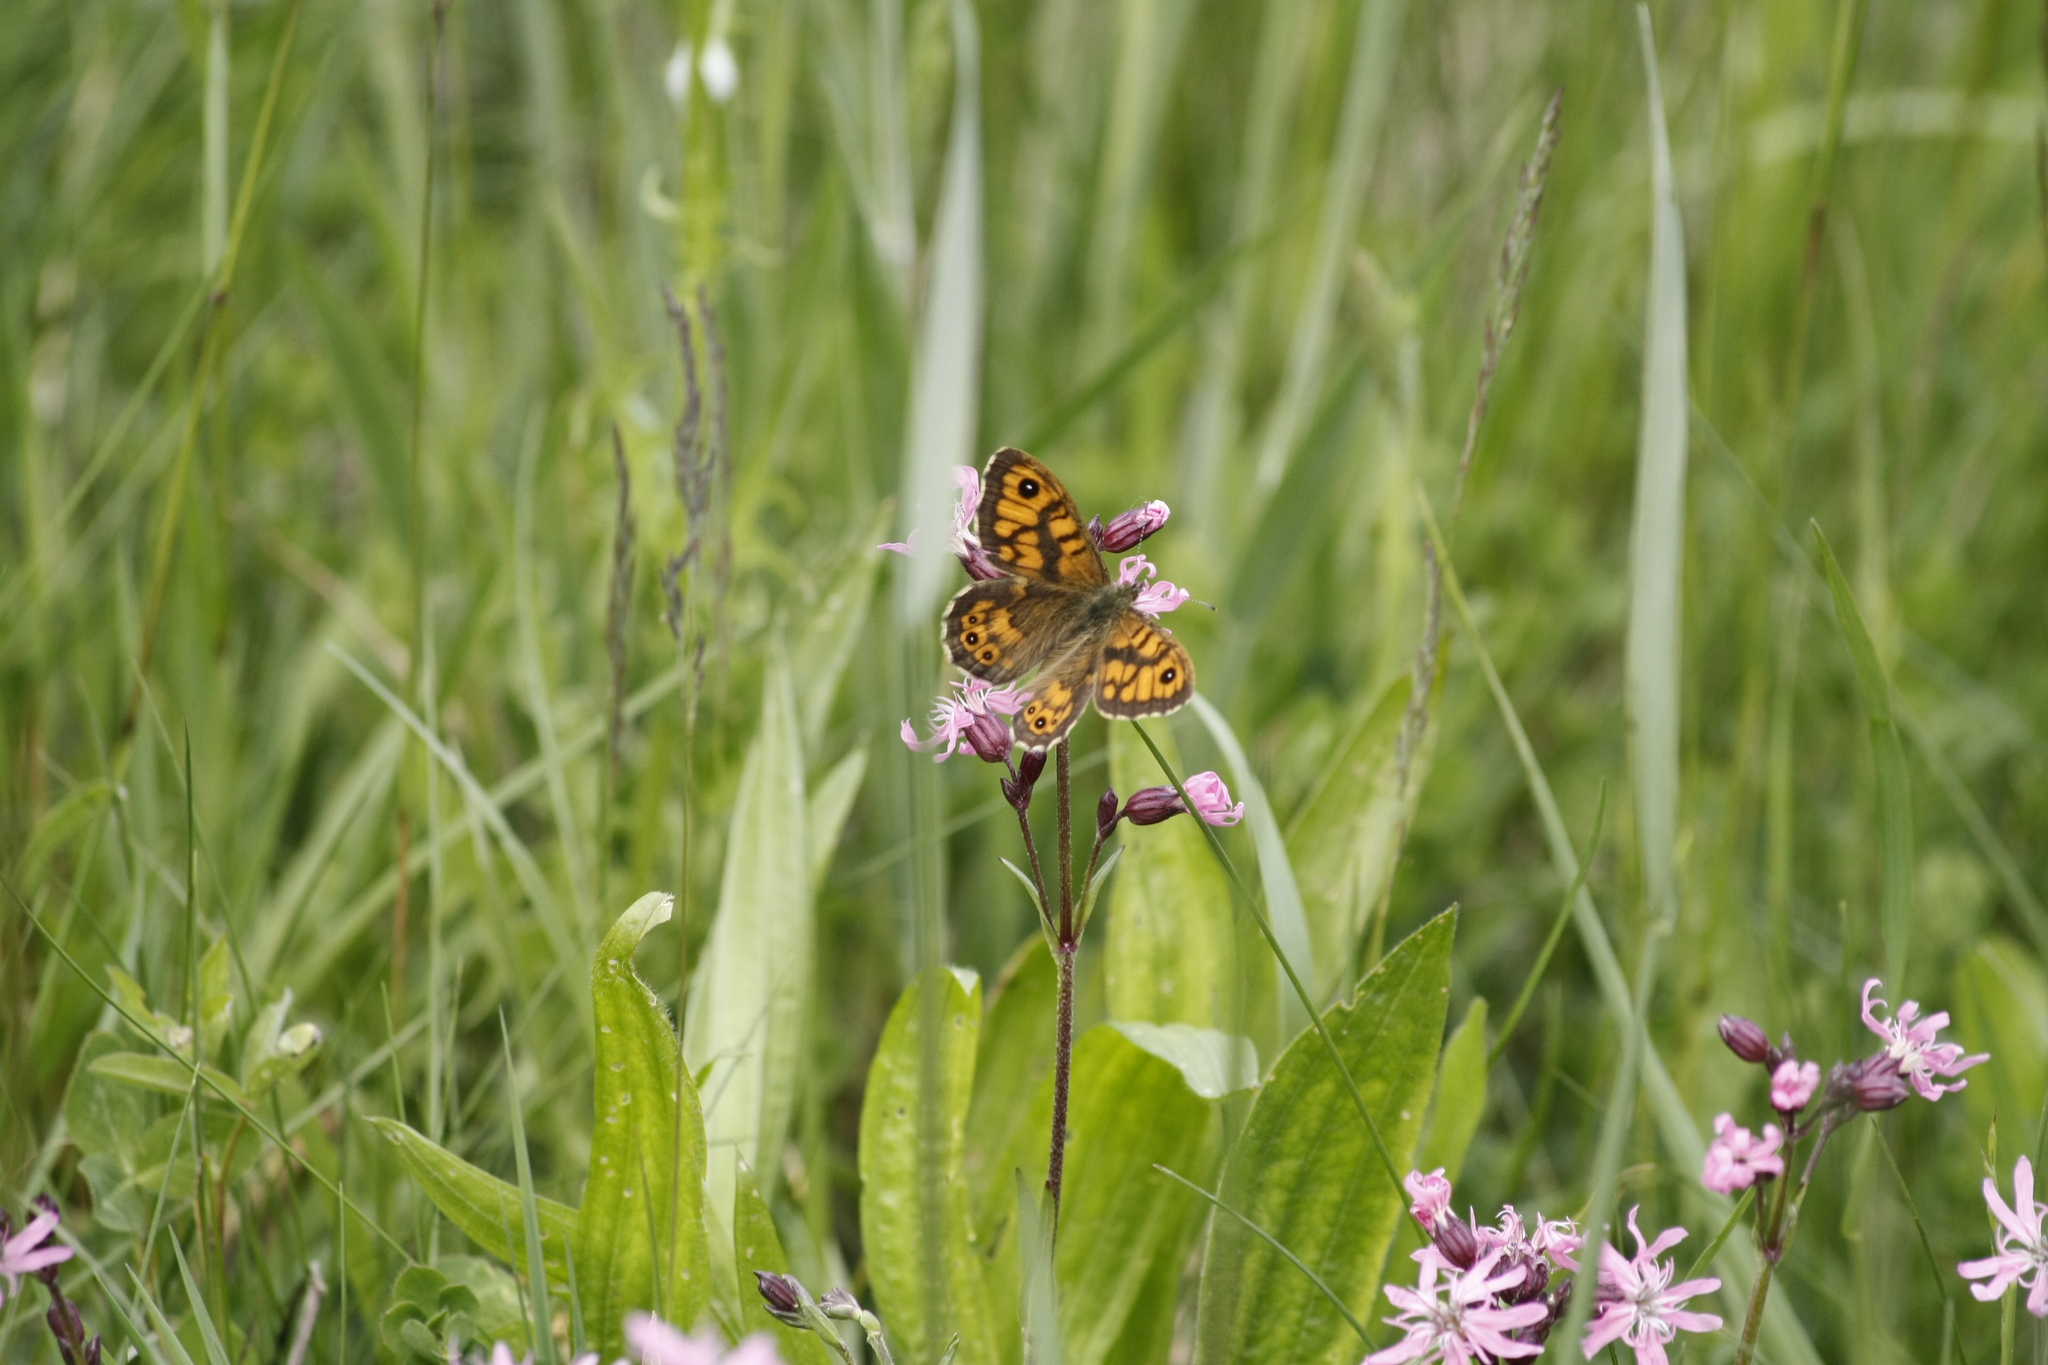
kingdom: Animalia
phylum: Arthropoda
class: Insecta
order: Lepidoptera
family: Nymphalidae
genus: Pararge
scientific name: Pararge Lasiommata megera
